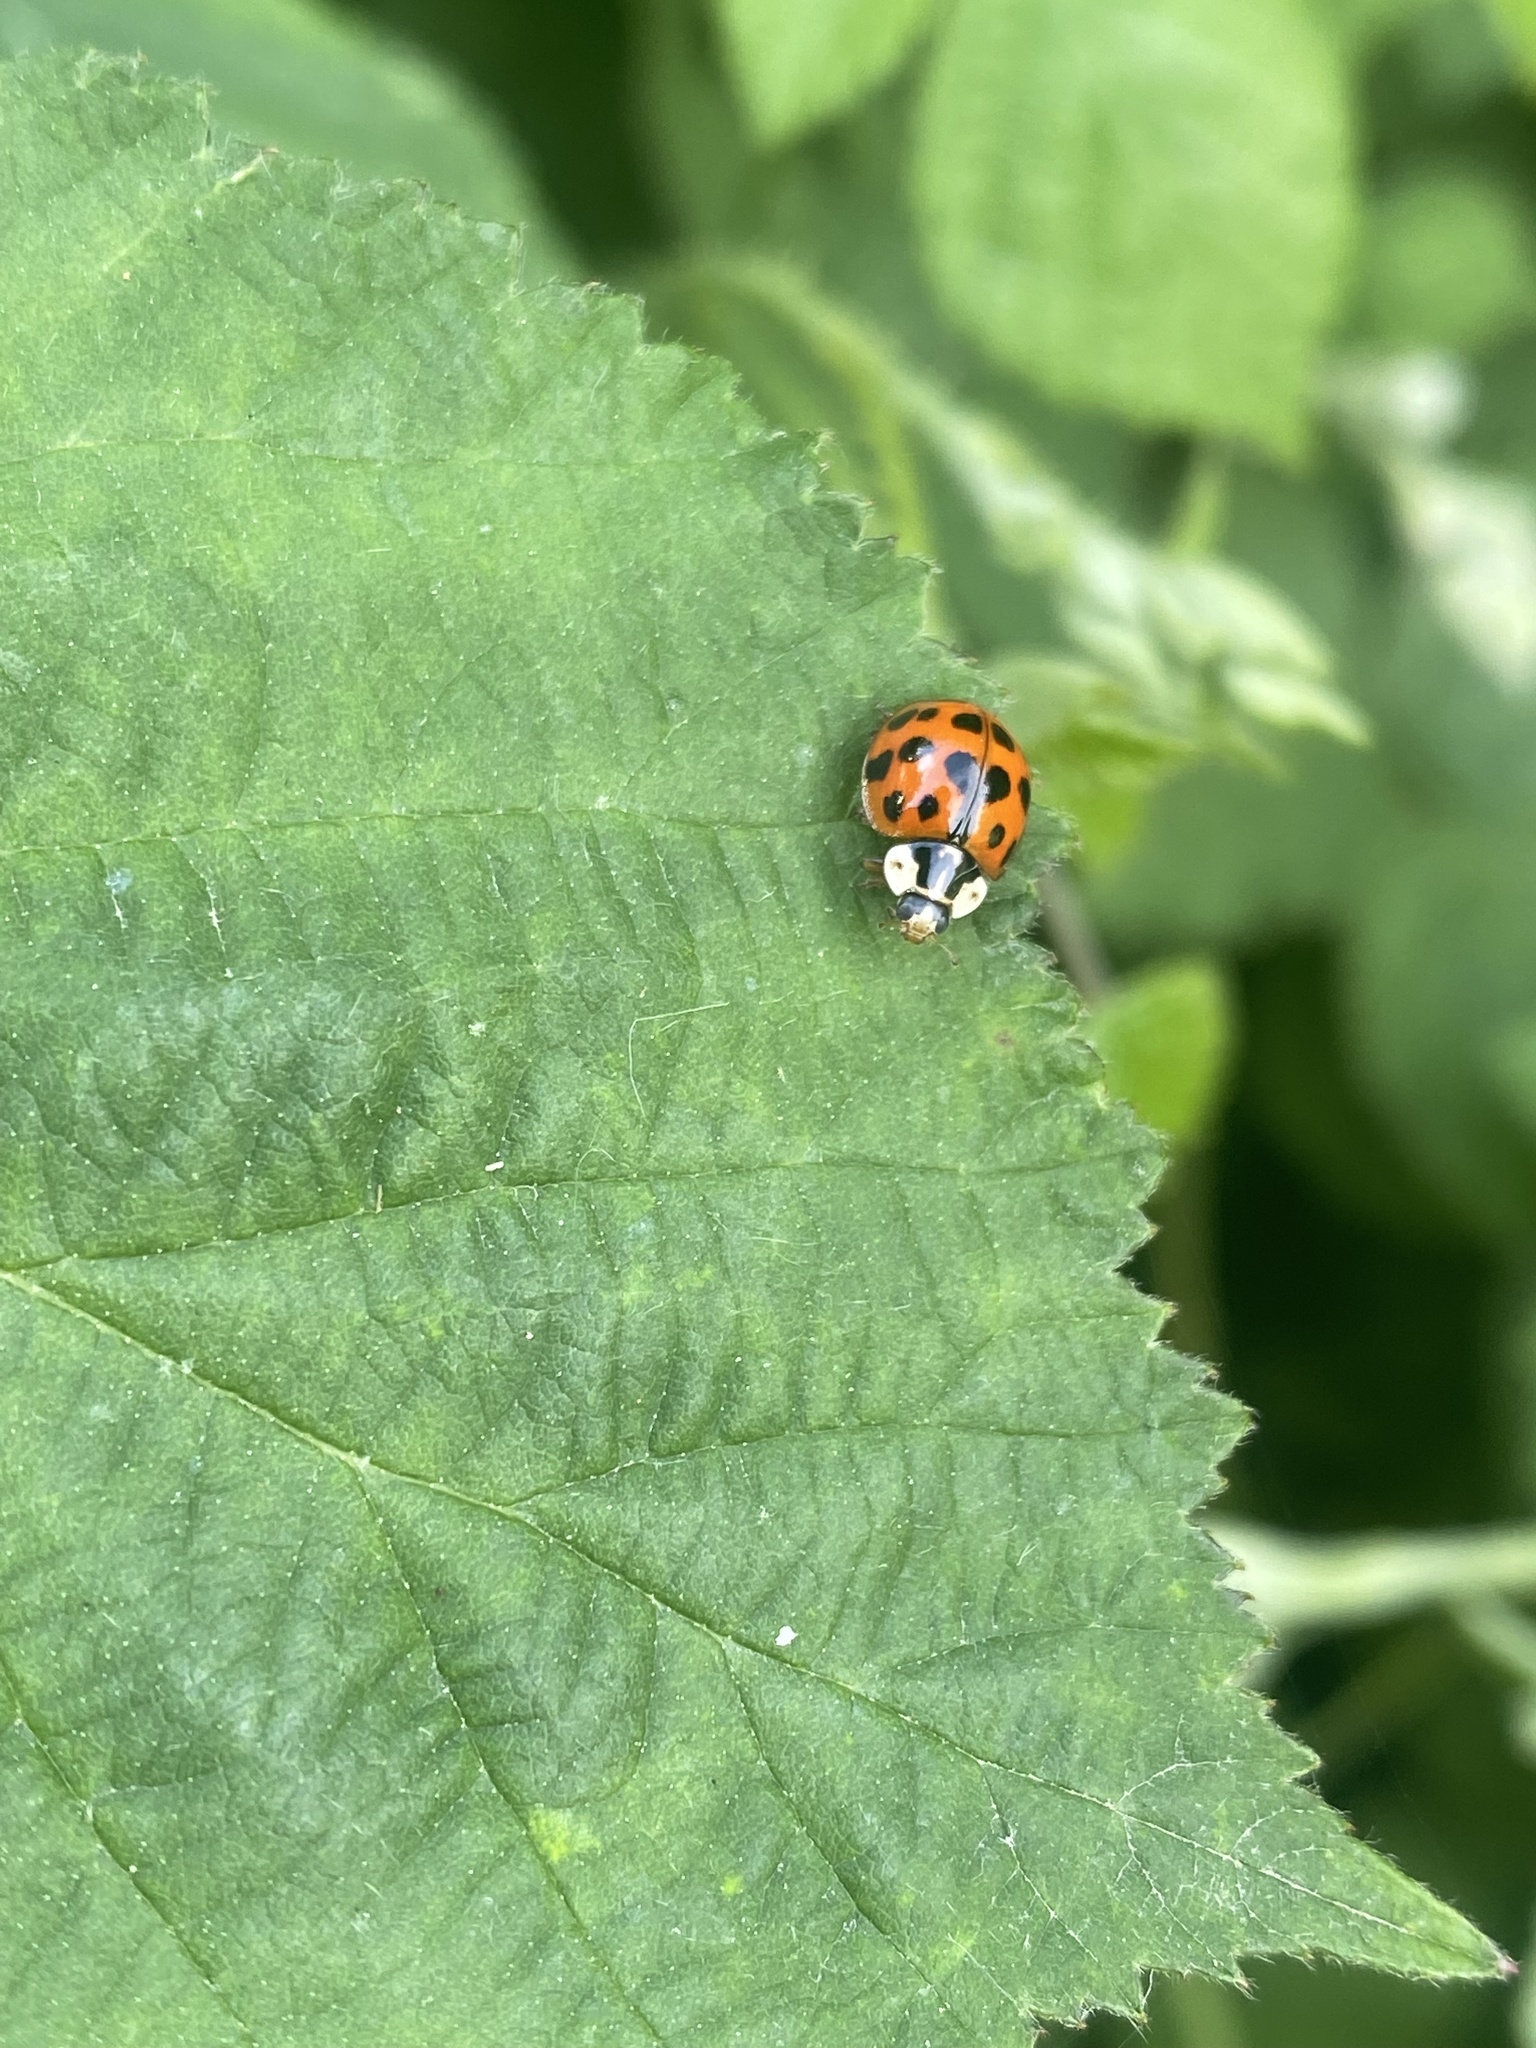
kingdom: Animalia
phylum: Arthropoda
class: Insecta
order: Coleoptera
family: Coccinellidae
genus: Harmonia
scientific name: Harmonia axyridis
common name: Harlequin ladybird
